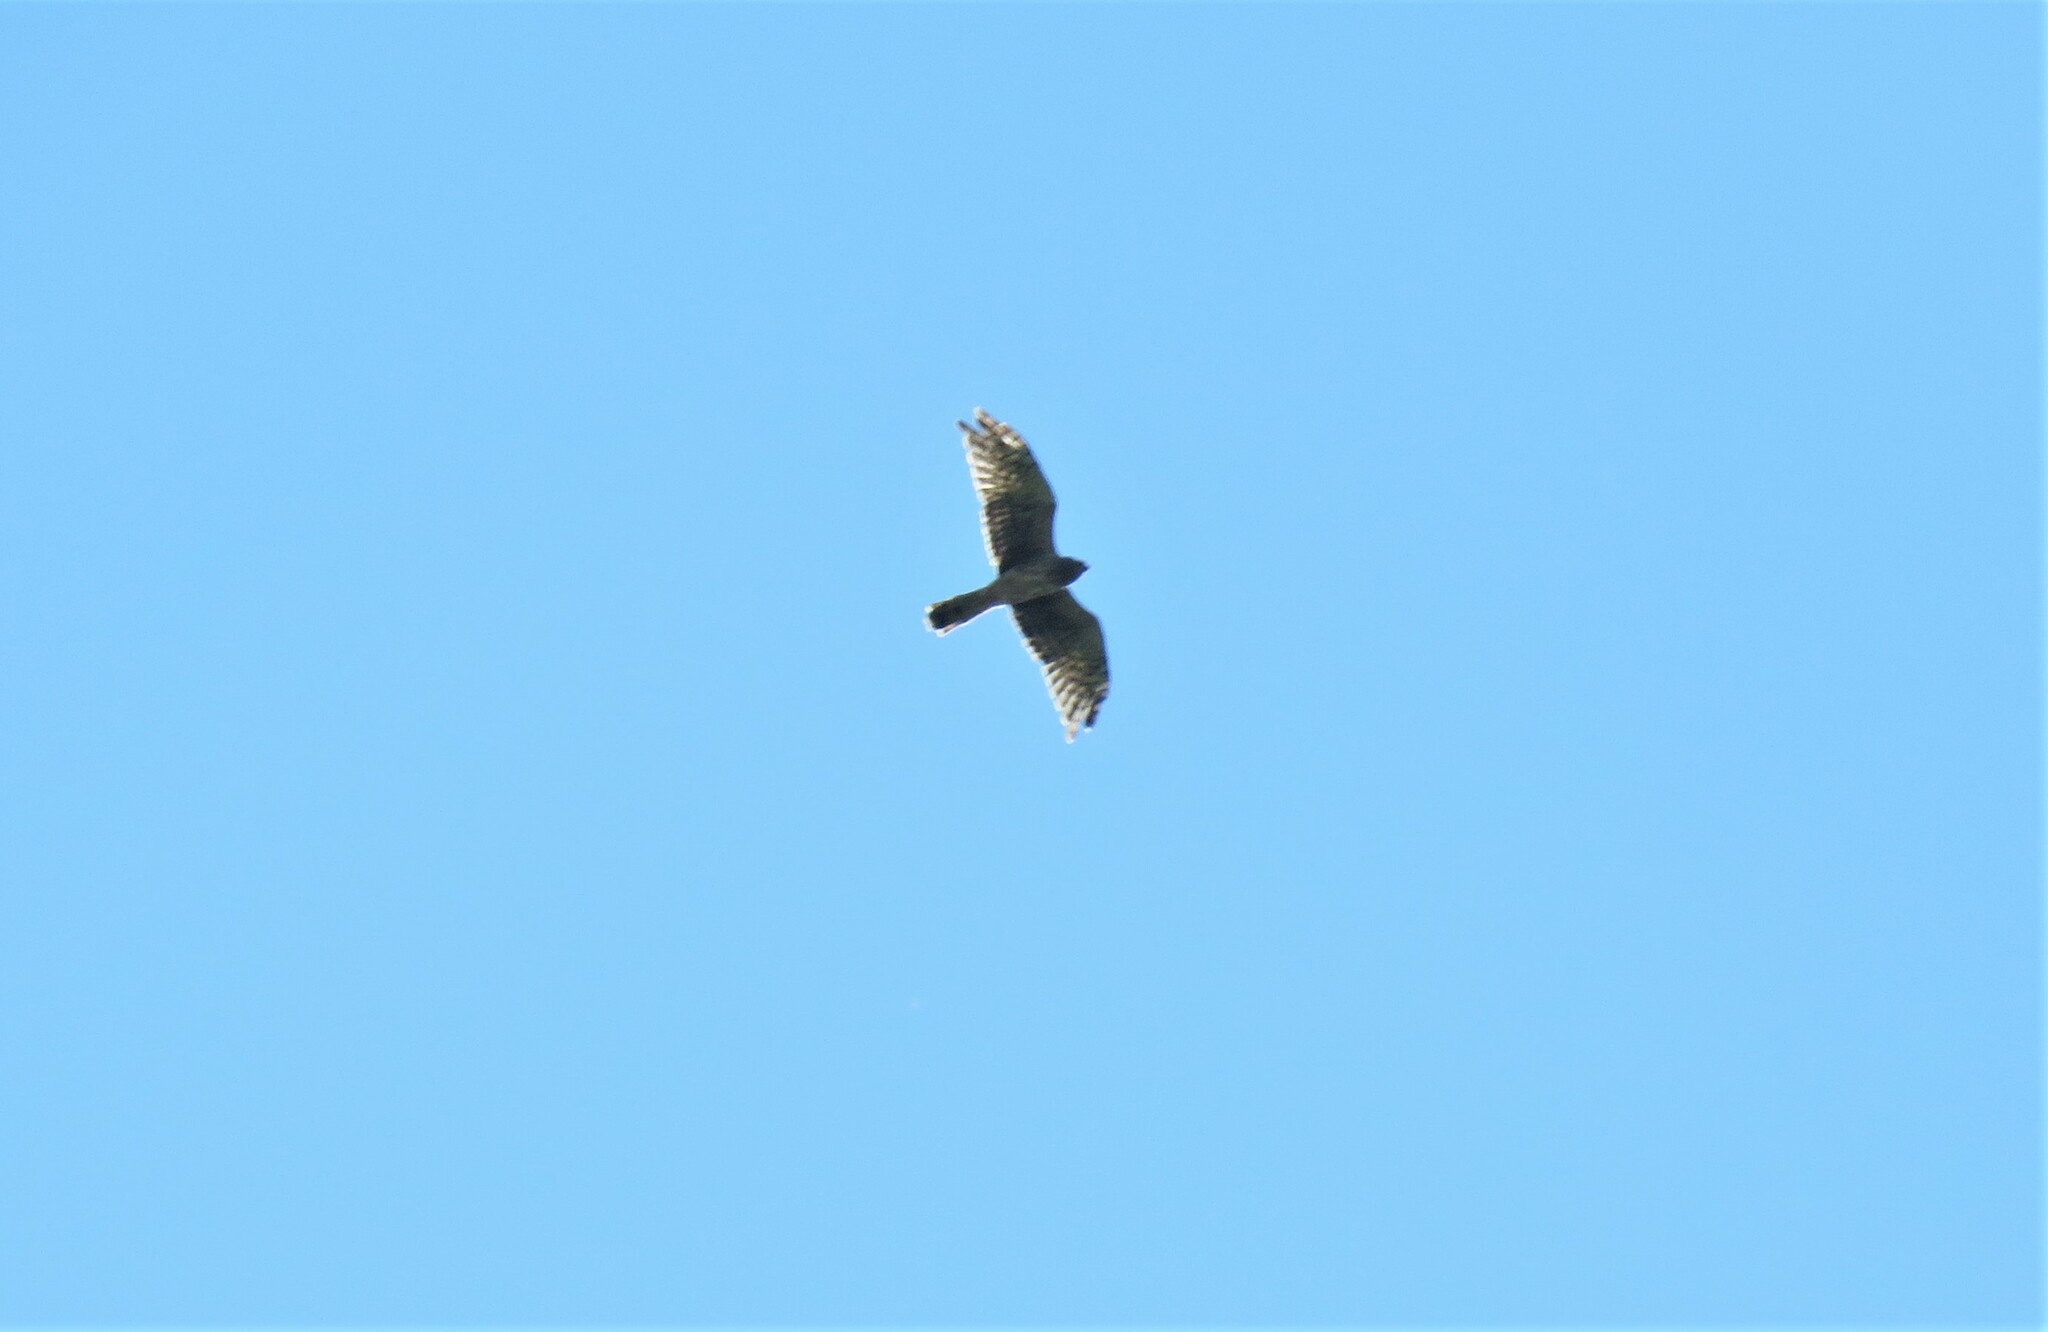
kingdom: Animalia
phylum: Chordata
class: Aves
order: Accipitriformes
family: Accipitridae
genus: Circus
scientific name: Circus cyaneus
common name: Hen harrier
